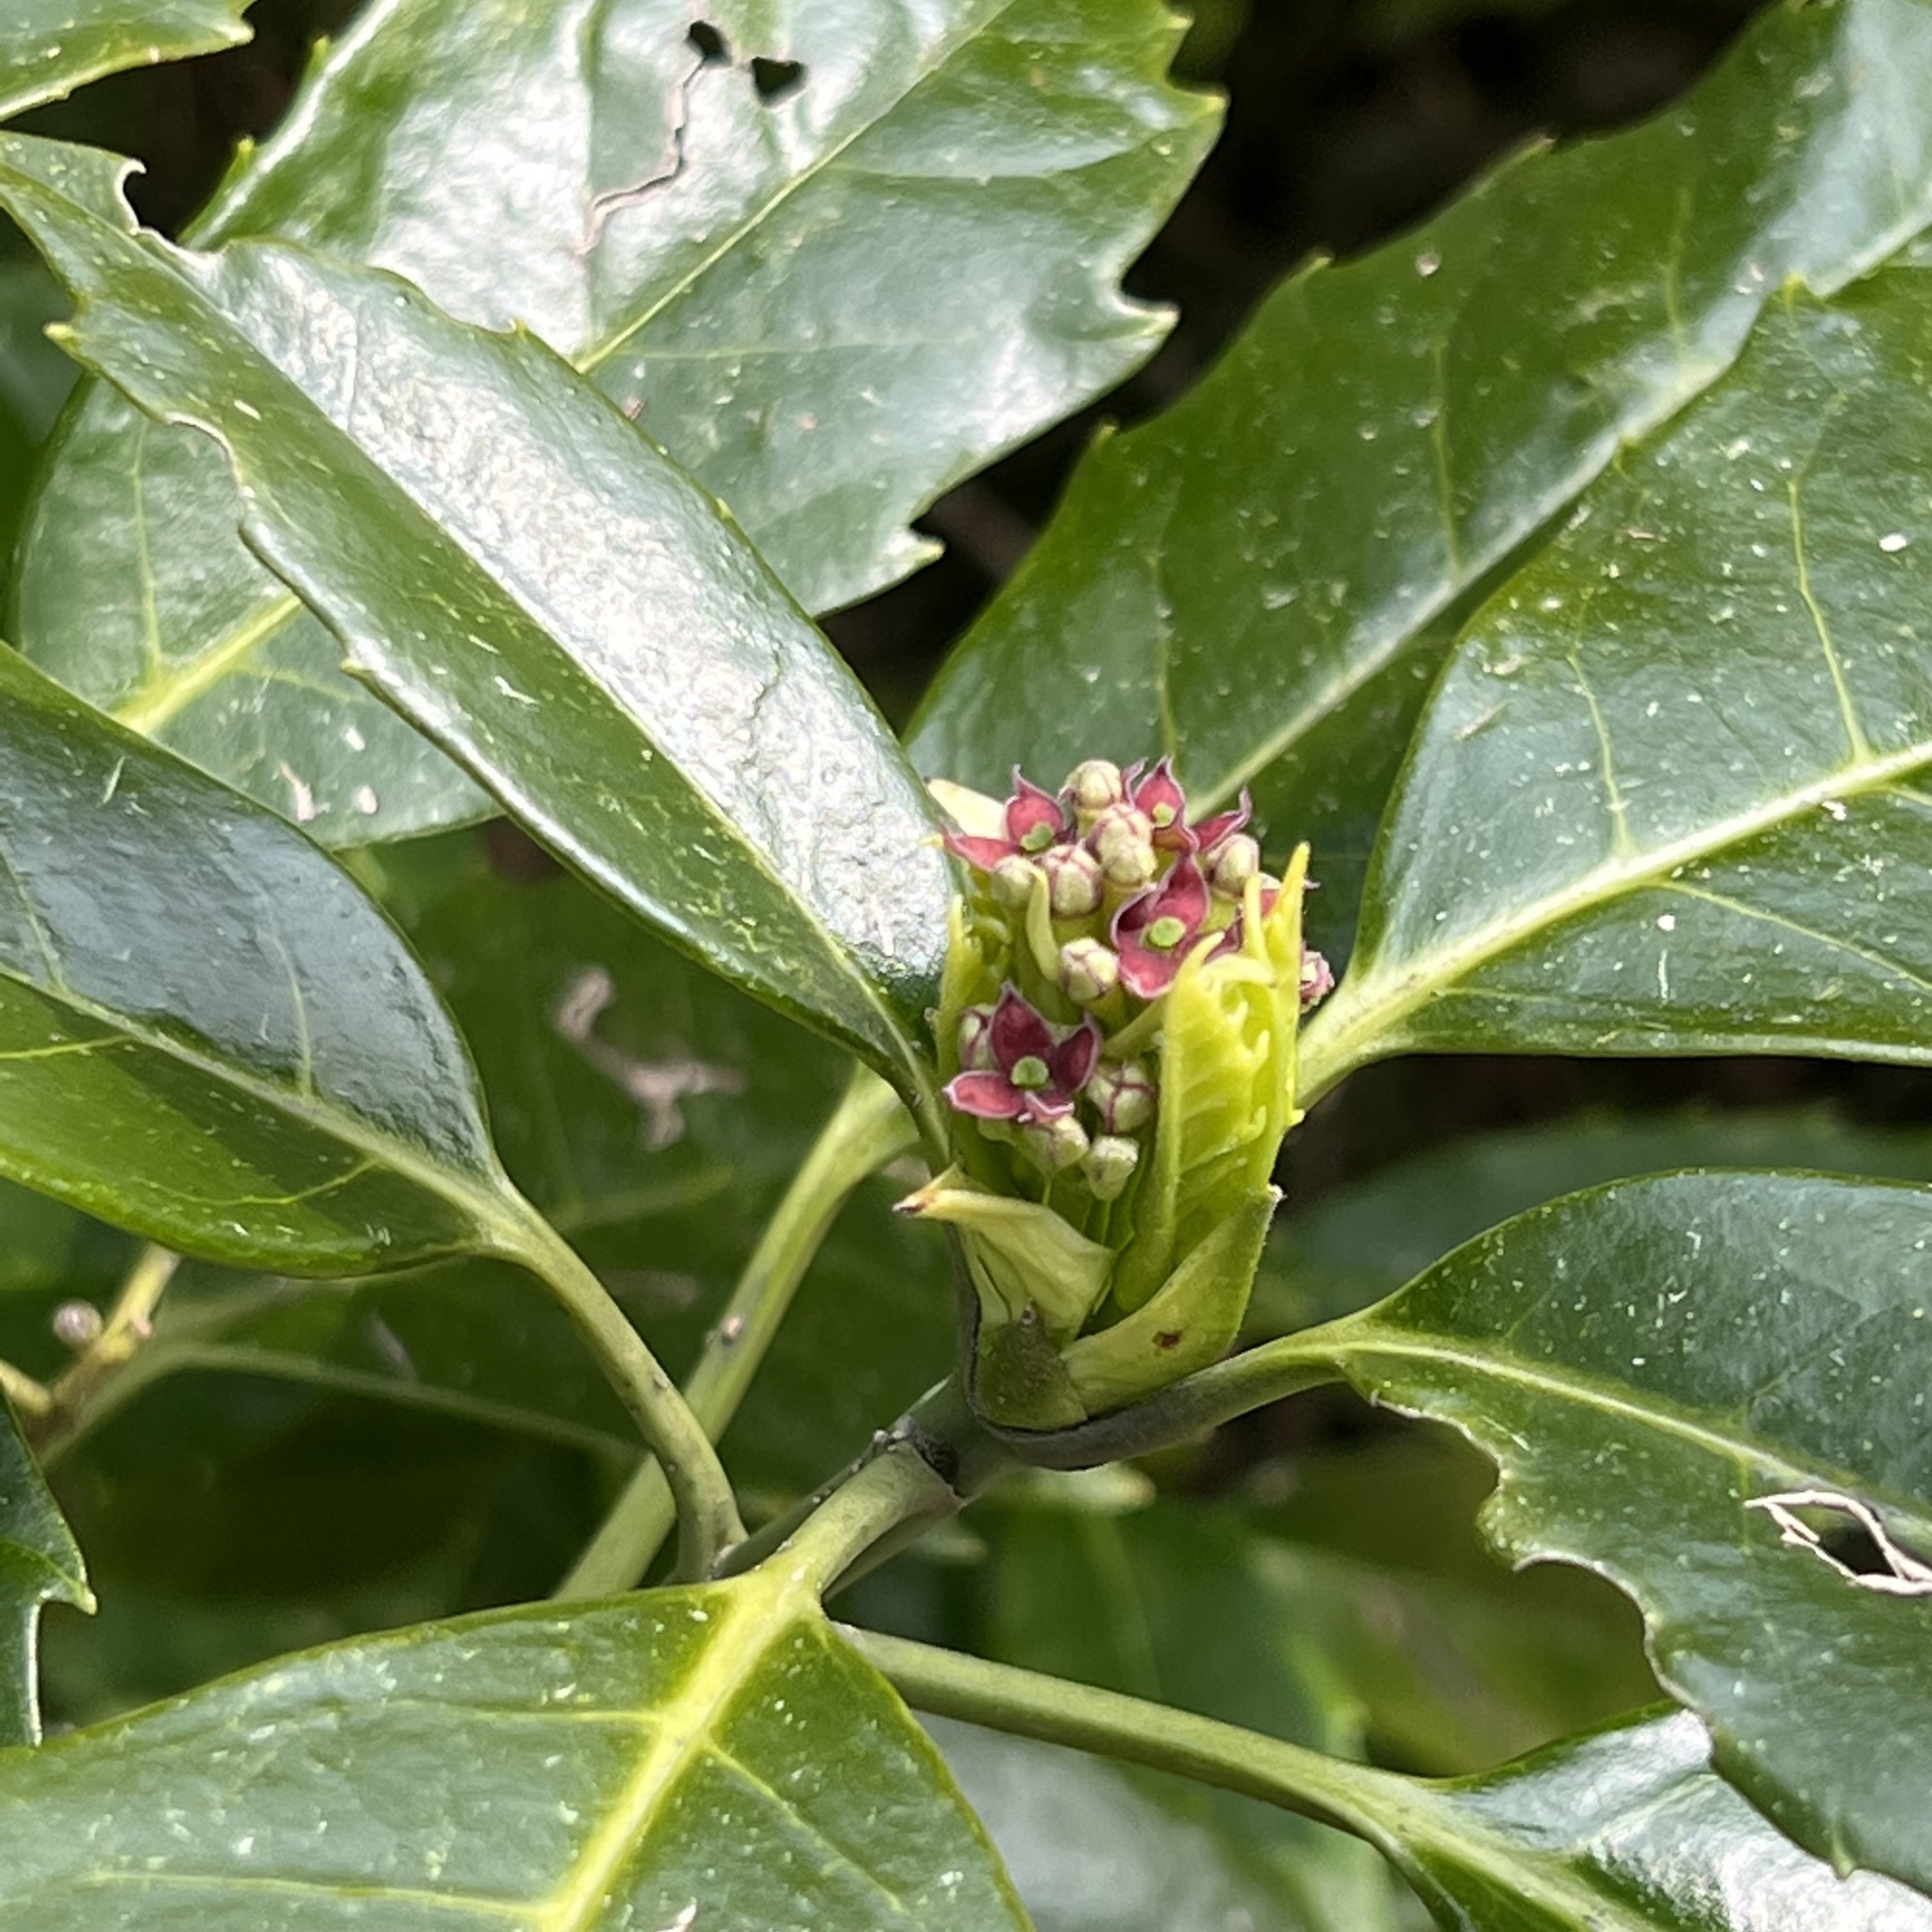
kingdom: Plantae
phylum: Tracheophyta
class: Magnoliopsida
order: Garryales
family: Garryaceae
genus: Aucuba
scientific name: Aucuba japonica
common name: Spotted-laurel
